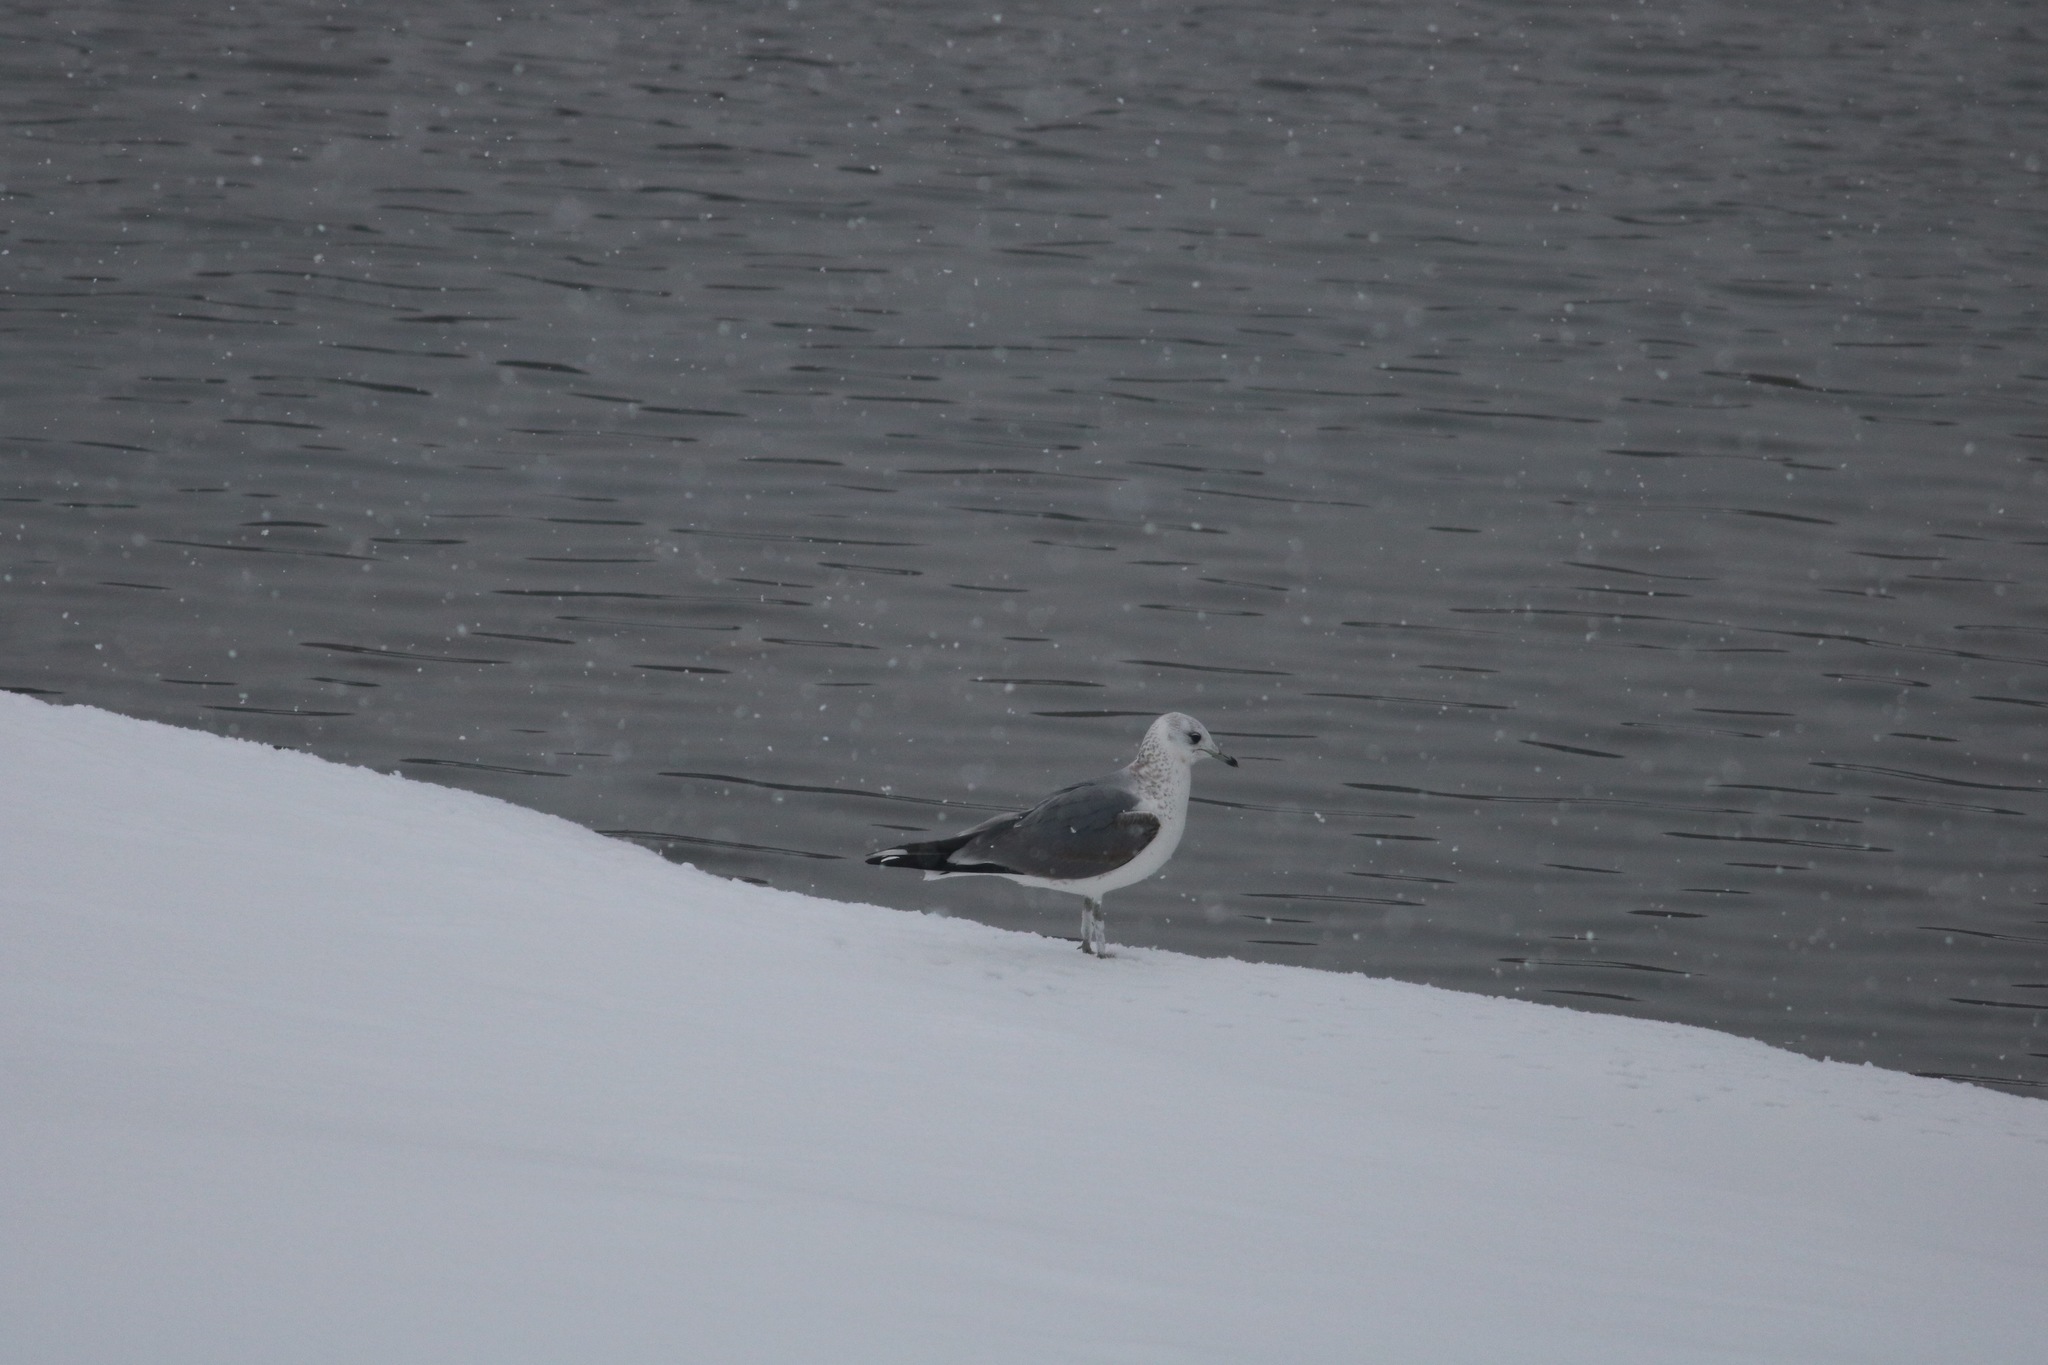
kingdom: Animalia
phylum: Chordata
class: Aves
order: Charadriiformes
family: Laridae
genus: Larus
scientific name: Larus canus
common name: Mew gull
